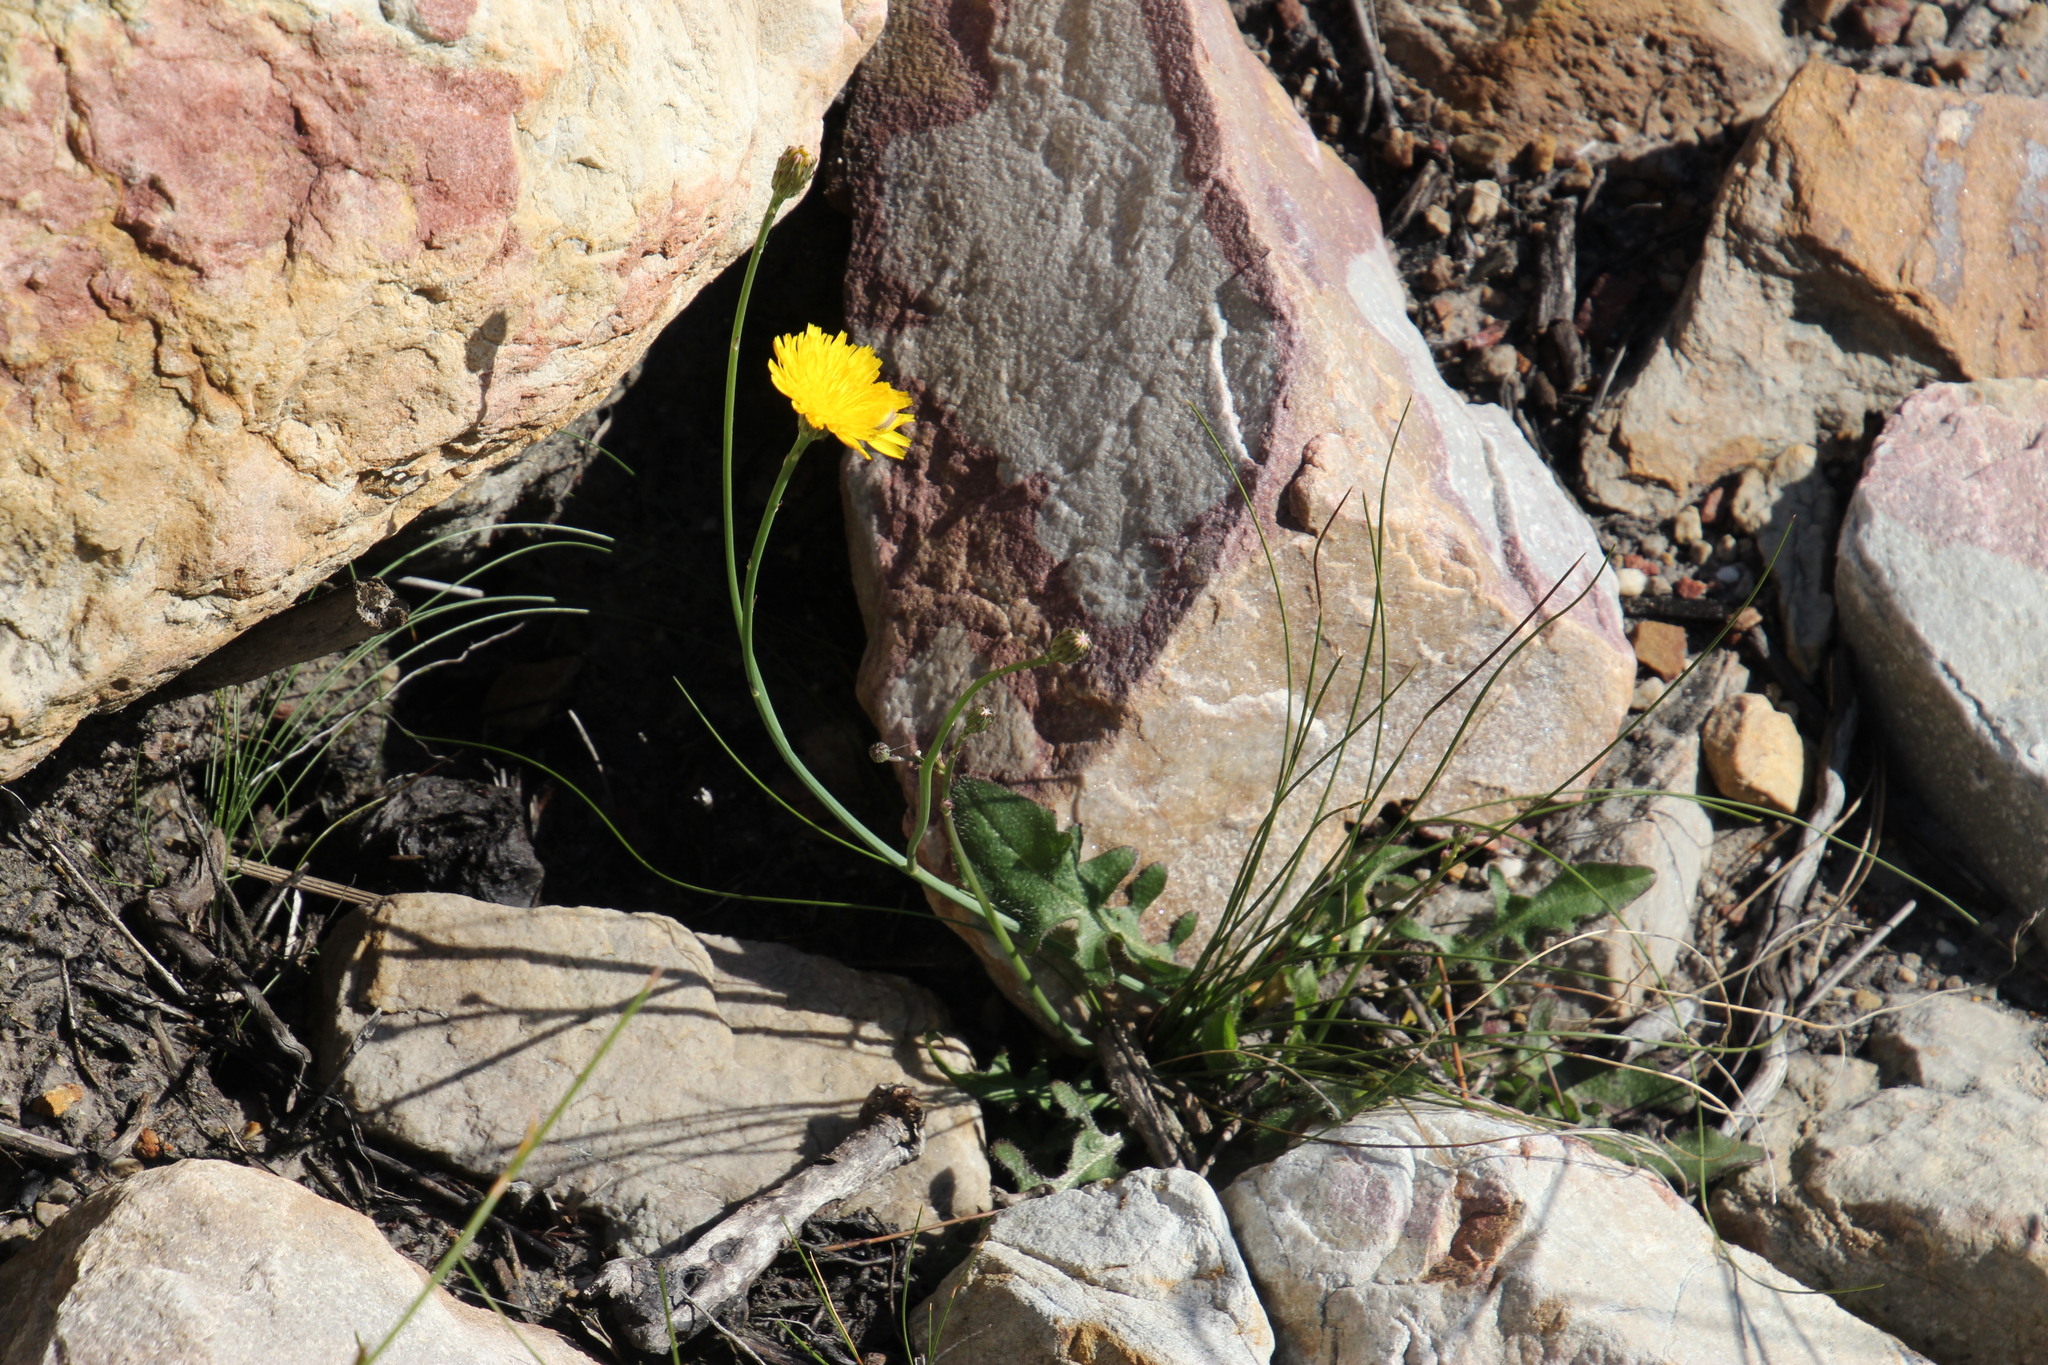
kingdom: Plantae
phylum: Tracheophyta
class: Magnoliopsida
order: Asterales
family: Asteraceae
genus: Hypochaeris
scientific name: Hypochaeris radicata
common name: Flatweed
